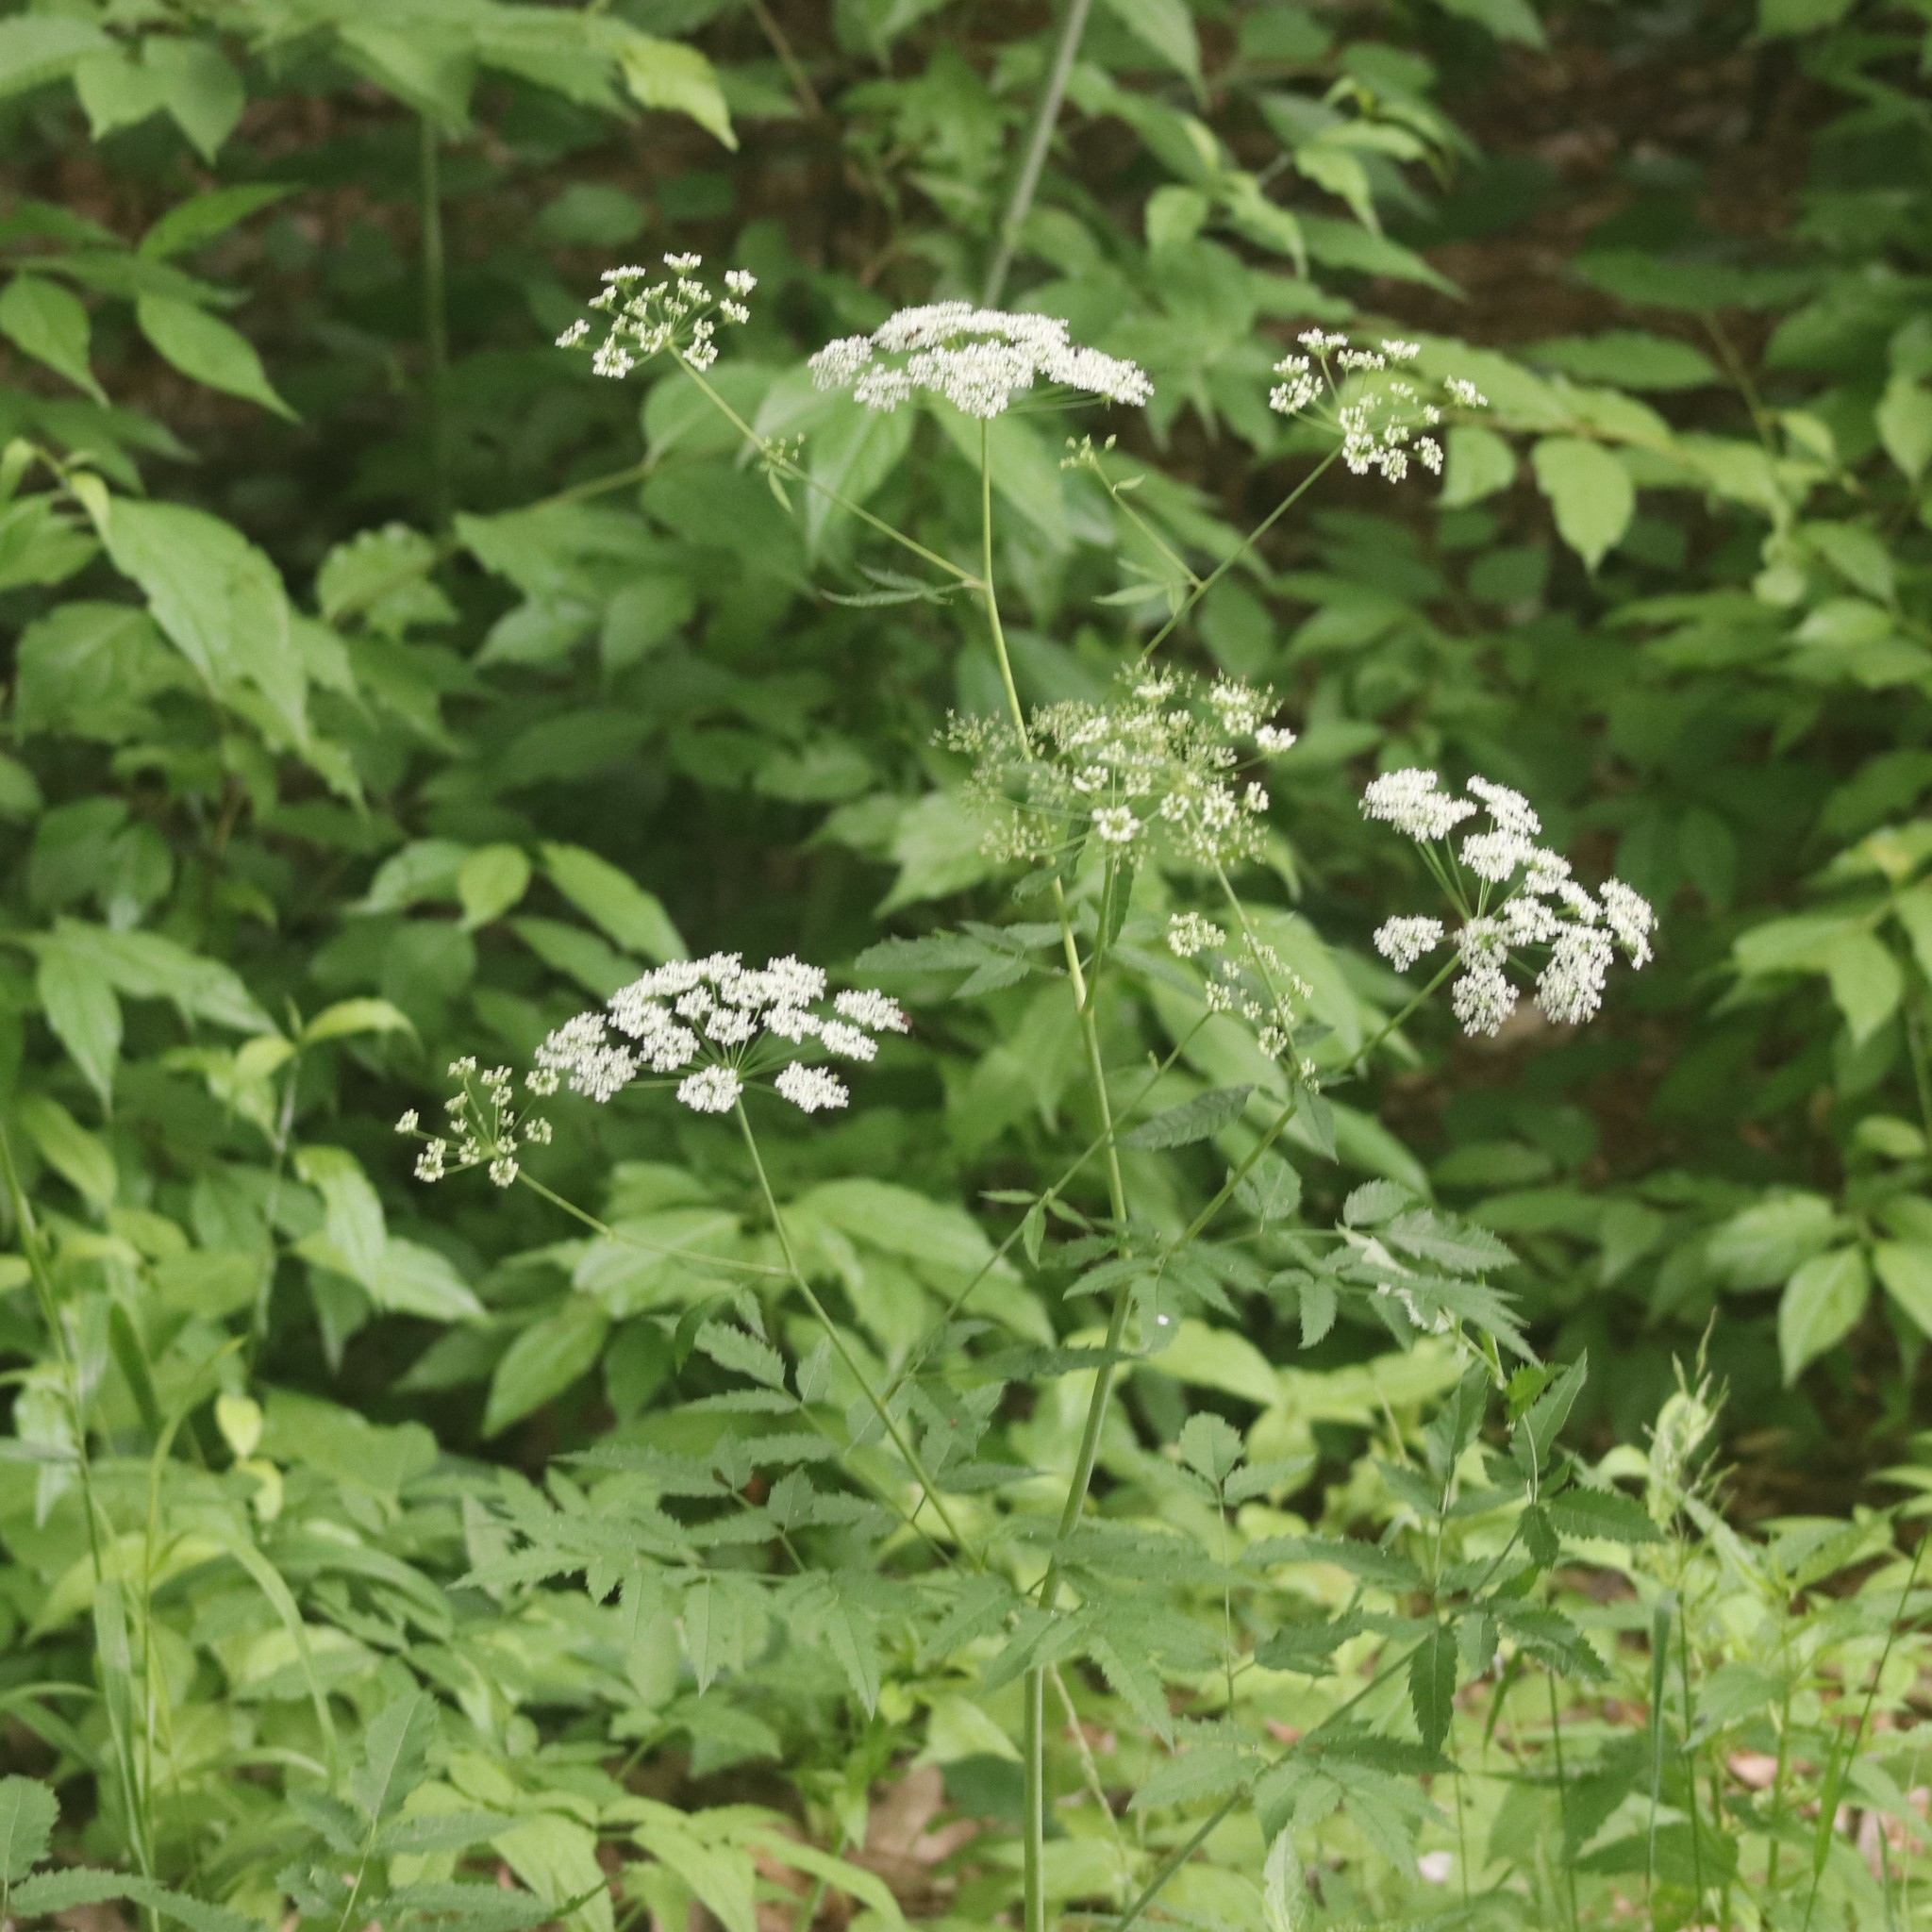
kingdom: Plantae
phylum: Tracheophyta
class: Magnoliopsida
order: Apiales
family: Apiaceae
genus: Cicuta
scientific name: Cicuta maculata
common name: Spotted cowbane
